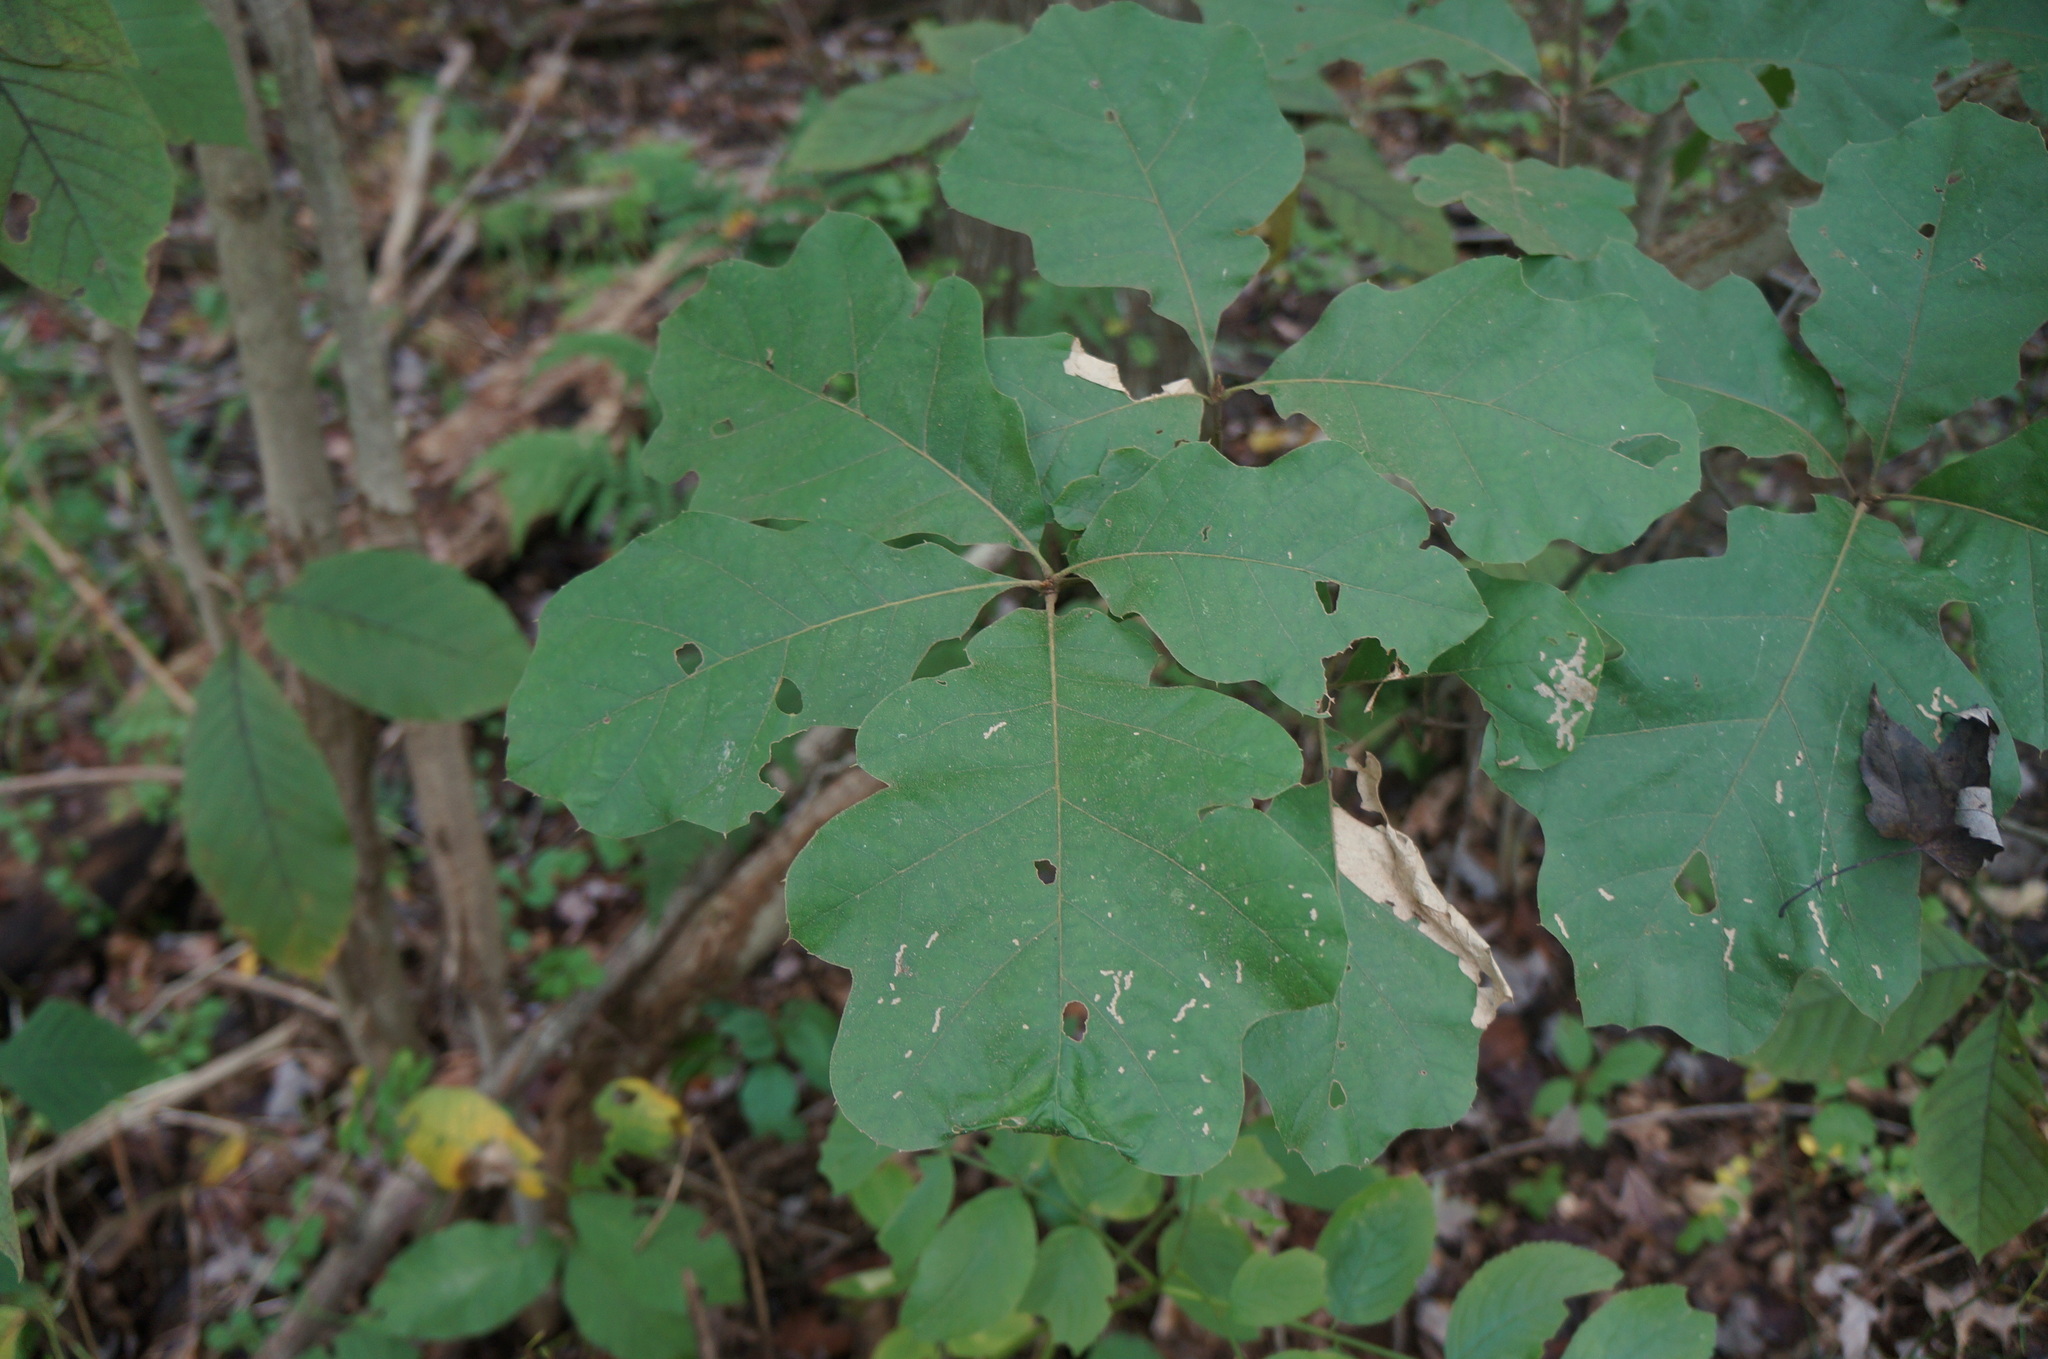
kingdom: Plantae
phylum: Tracheophyta
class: Magnoliopsida
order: Fagales
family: Fagaceae
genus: Quercus
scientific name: Quercus velutina
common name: Black oak
